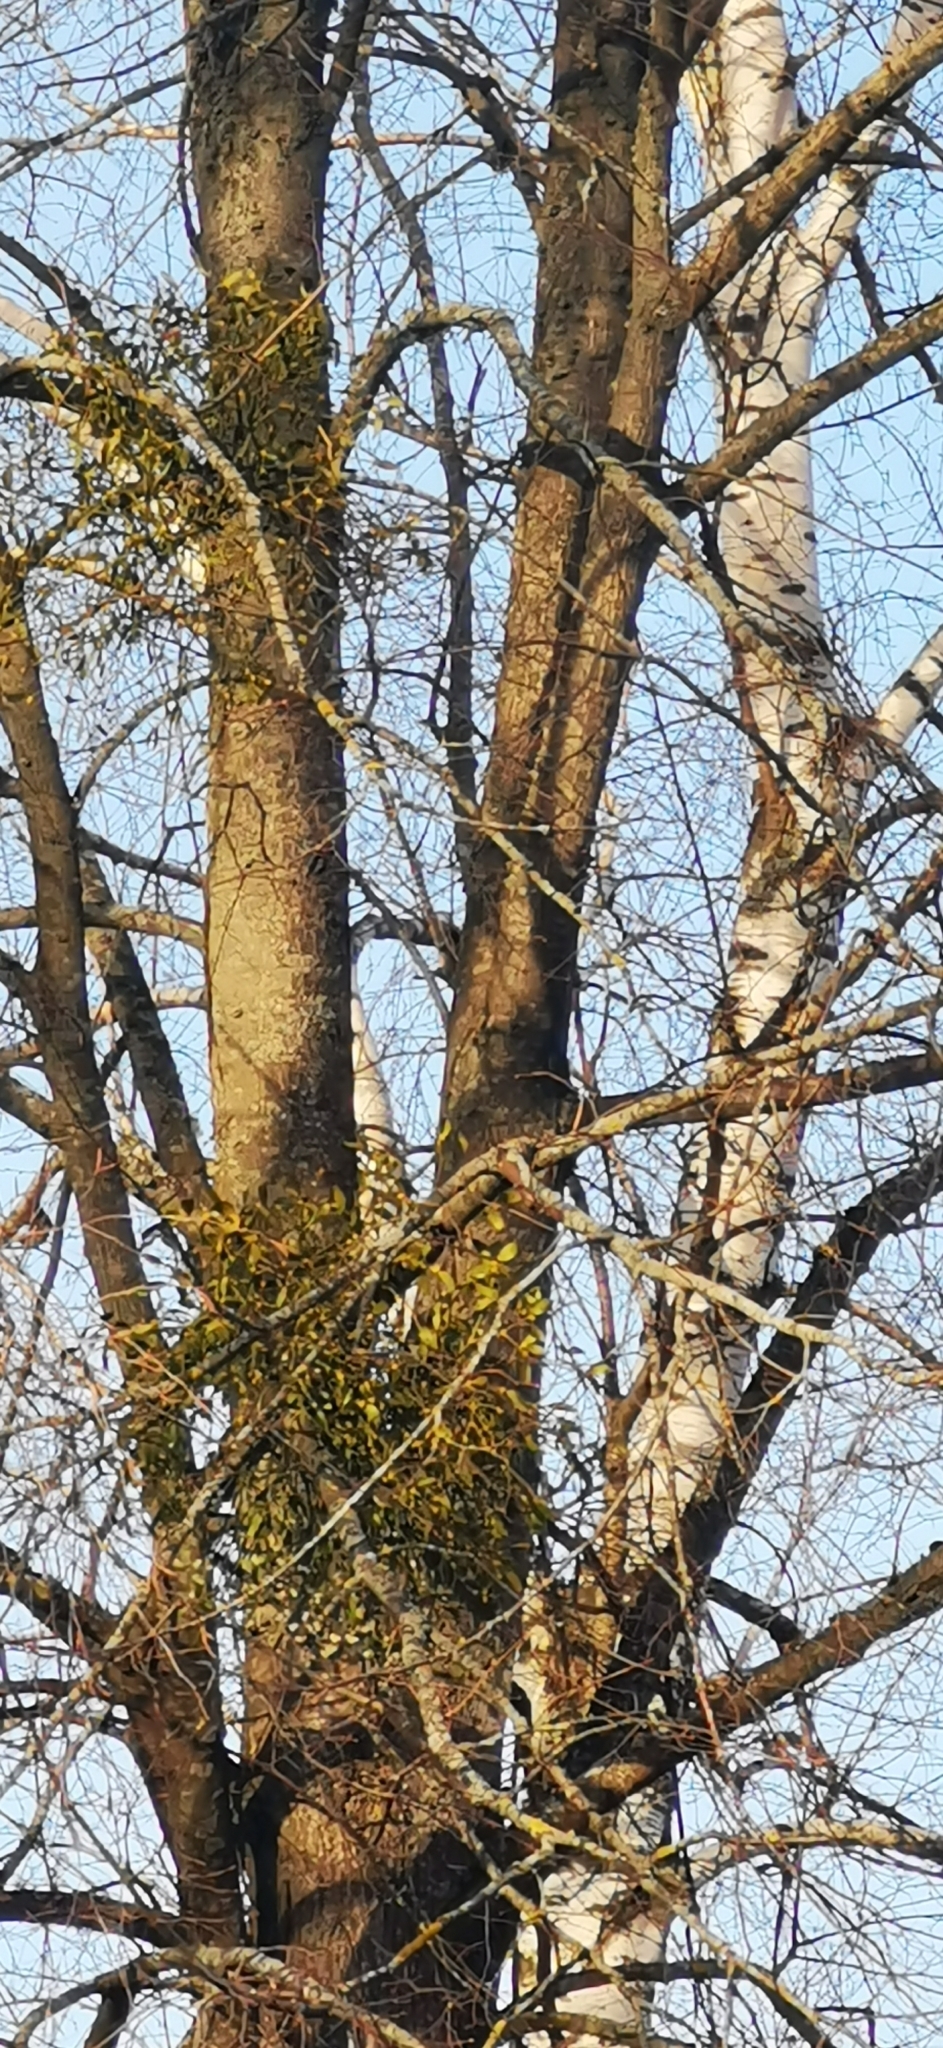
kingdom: Plantae
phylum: Tracheophyta
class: Magnoliopsida
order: Santalales
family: Viscaceae
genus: Viscum
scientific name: Viscum album
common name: Mistletoe
